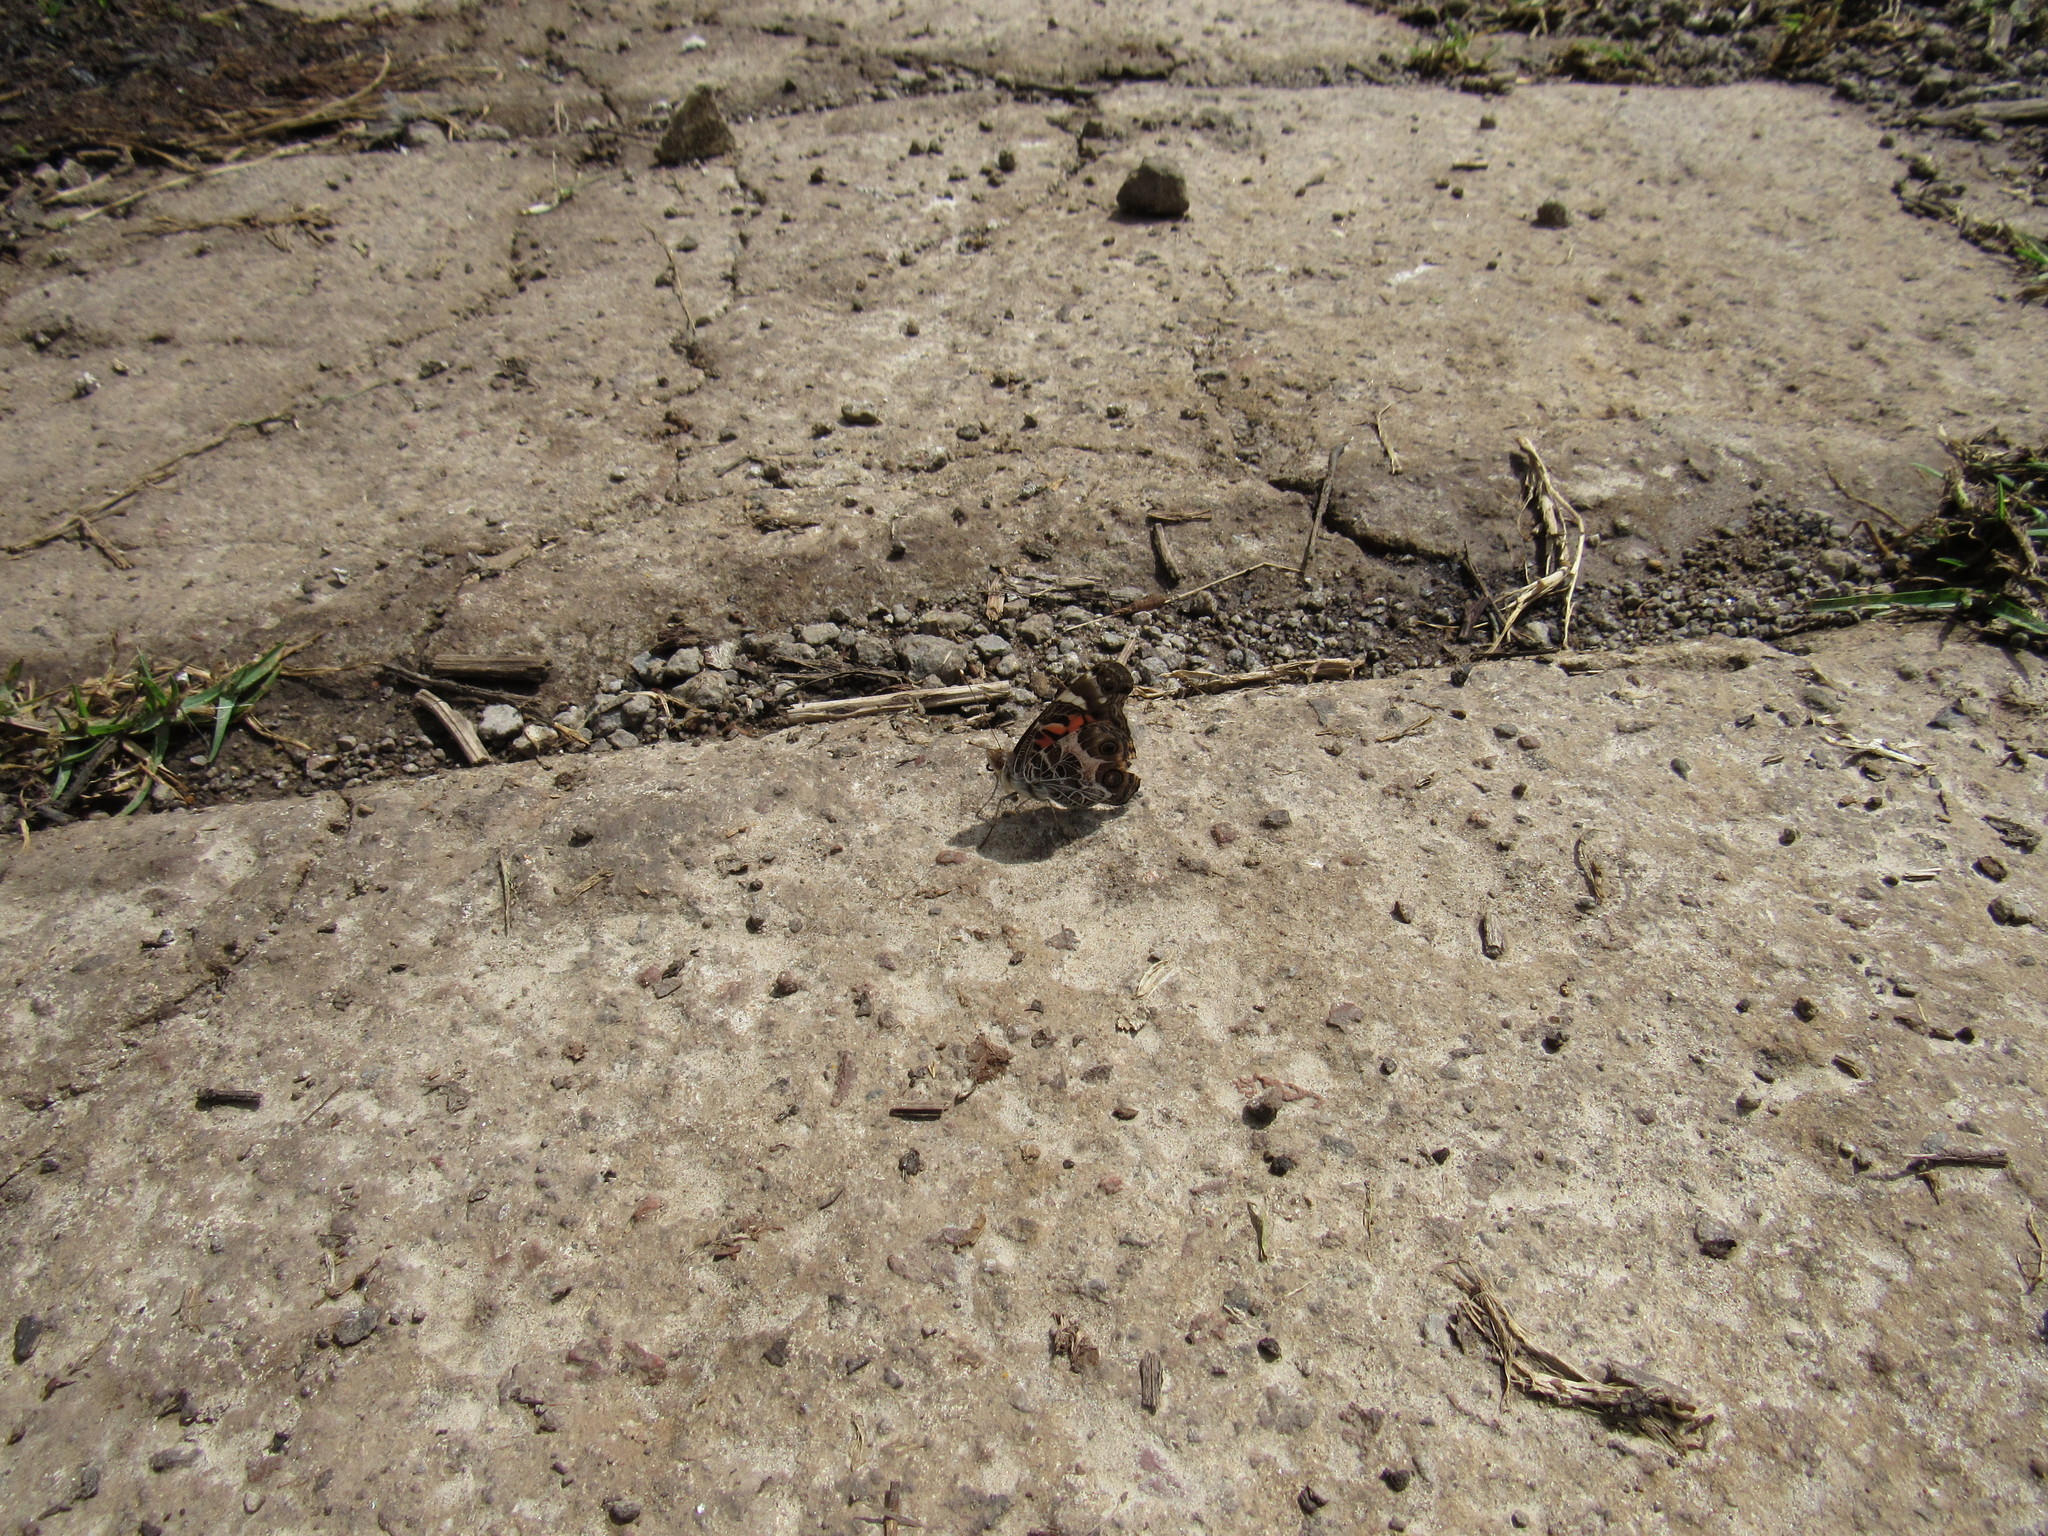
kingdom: Animalia
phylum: Arthropoda
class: Insecta
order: Lepidoptera
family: Nymphalidae
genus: Vanessa
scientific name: Vanessa virginiensis
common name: American lady
